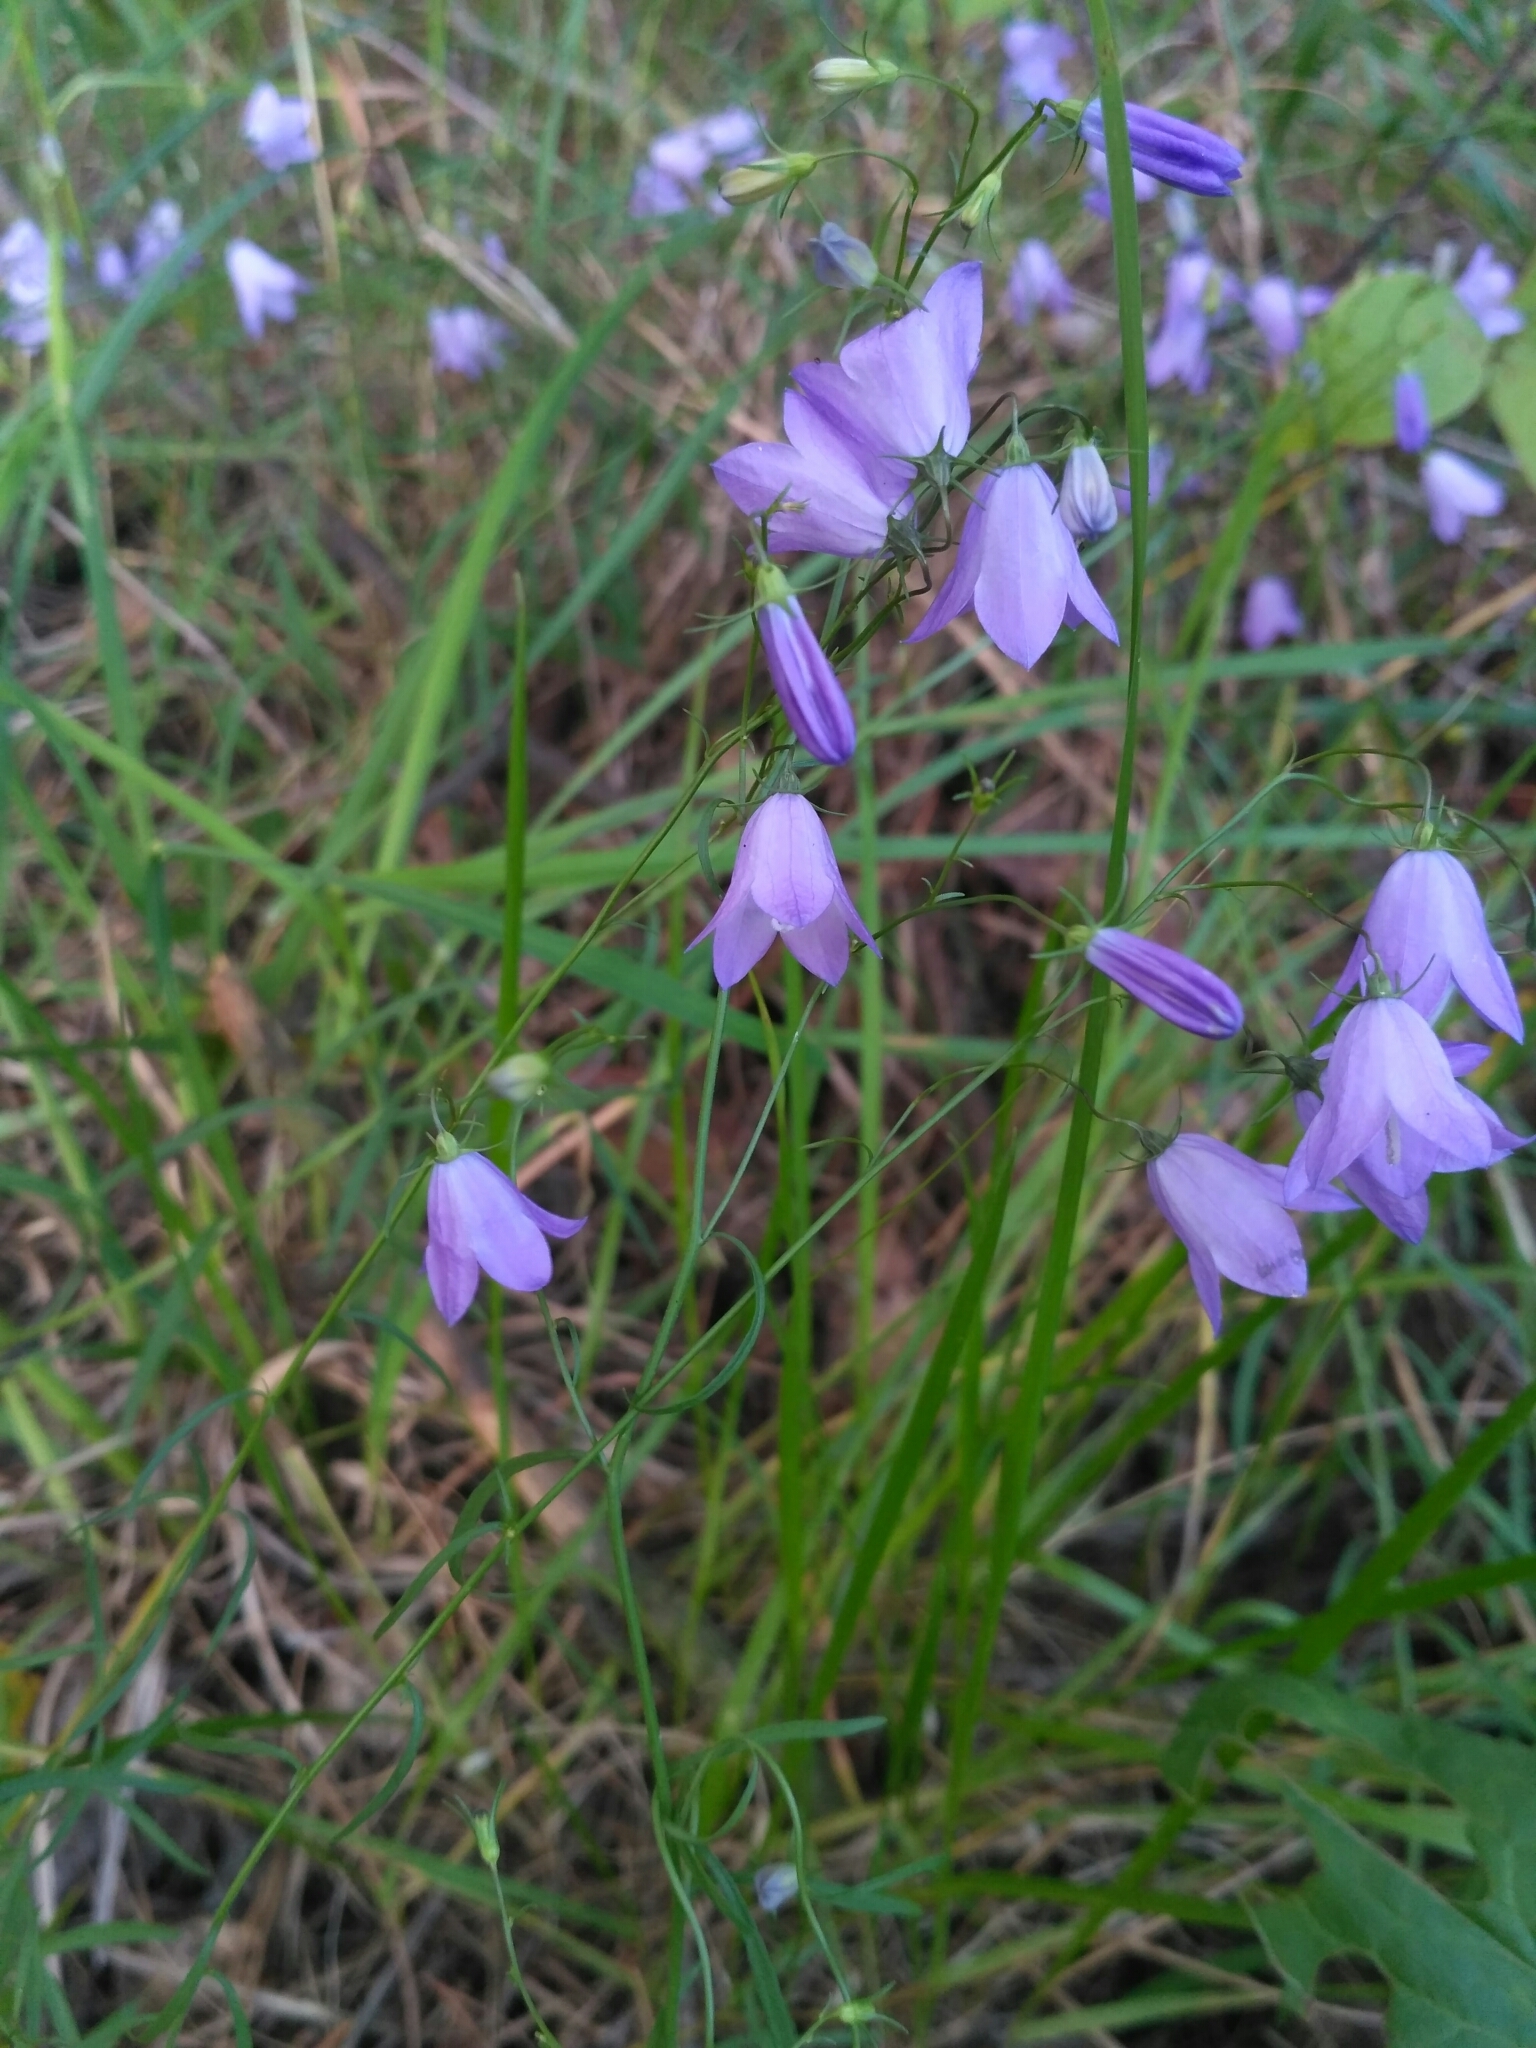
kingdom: Plantae
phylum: Tracheophyta
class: Magnoliopsida
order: Asterales
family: Campanulaceae
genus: Campanula
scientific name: Campanula rotundifolia
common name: Harebell
